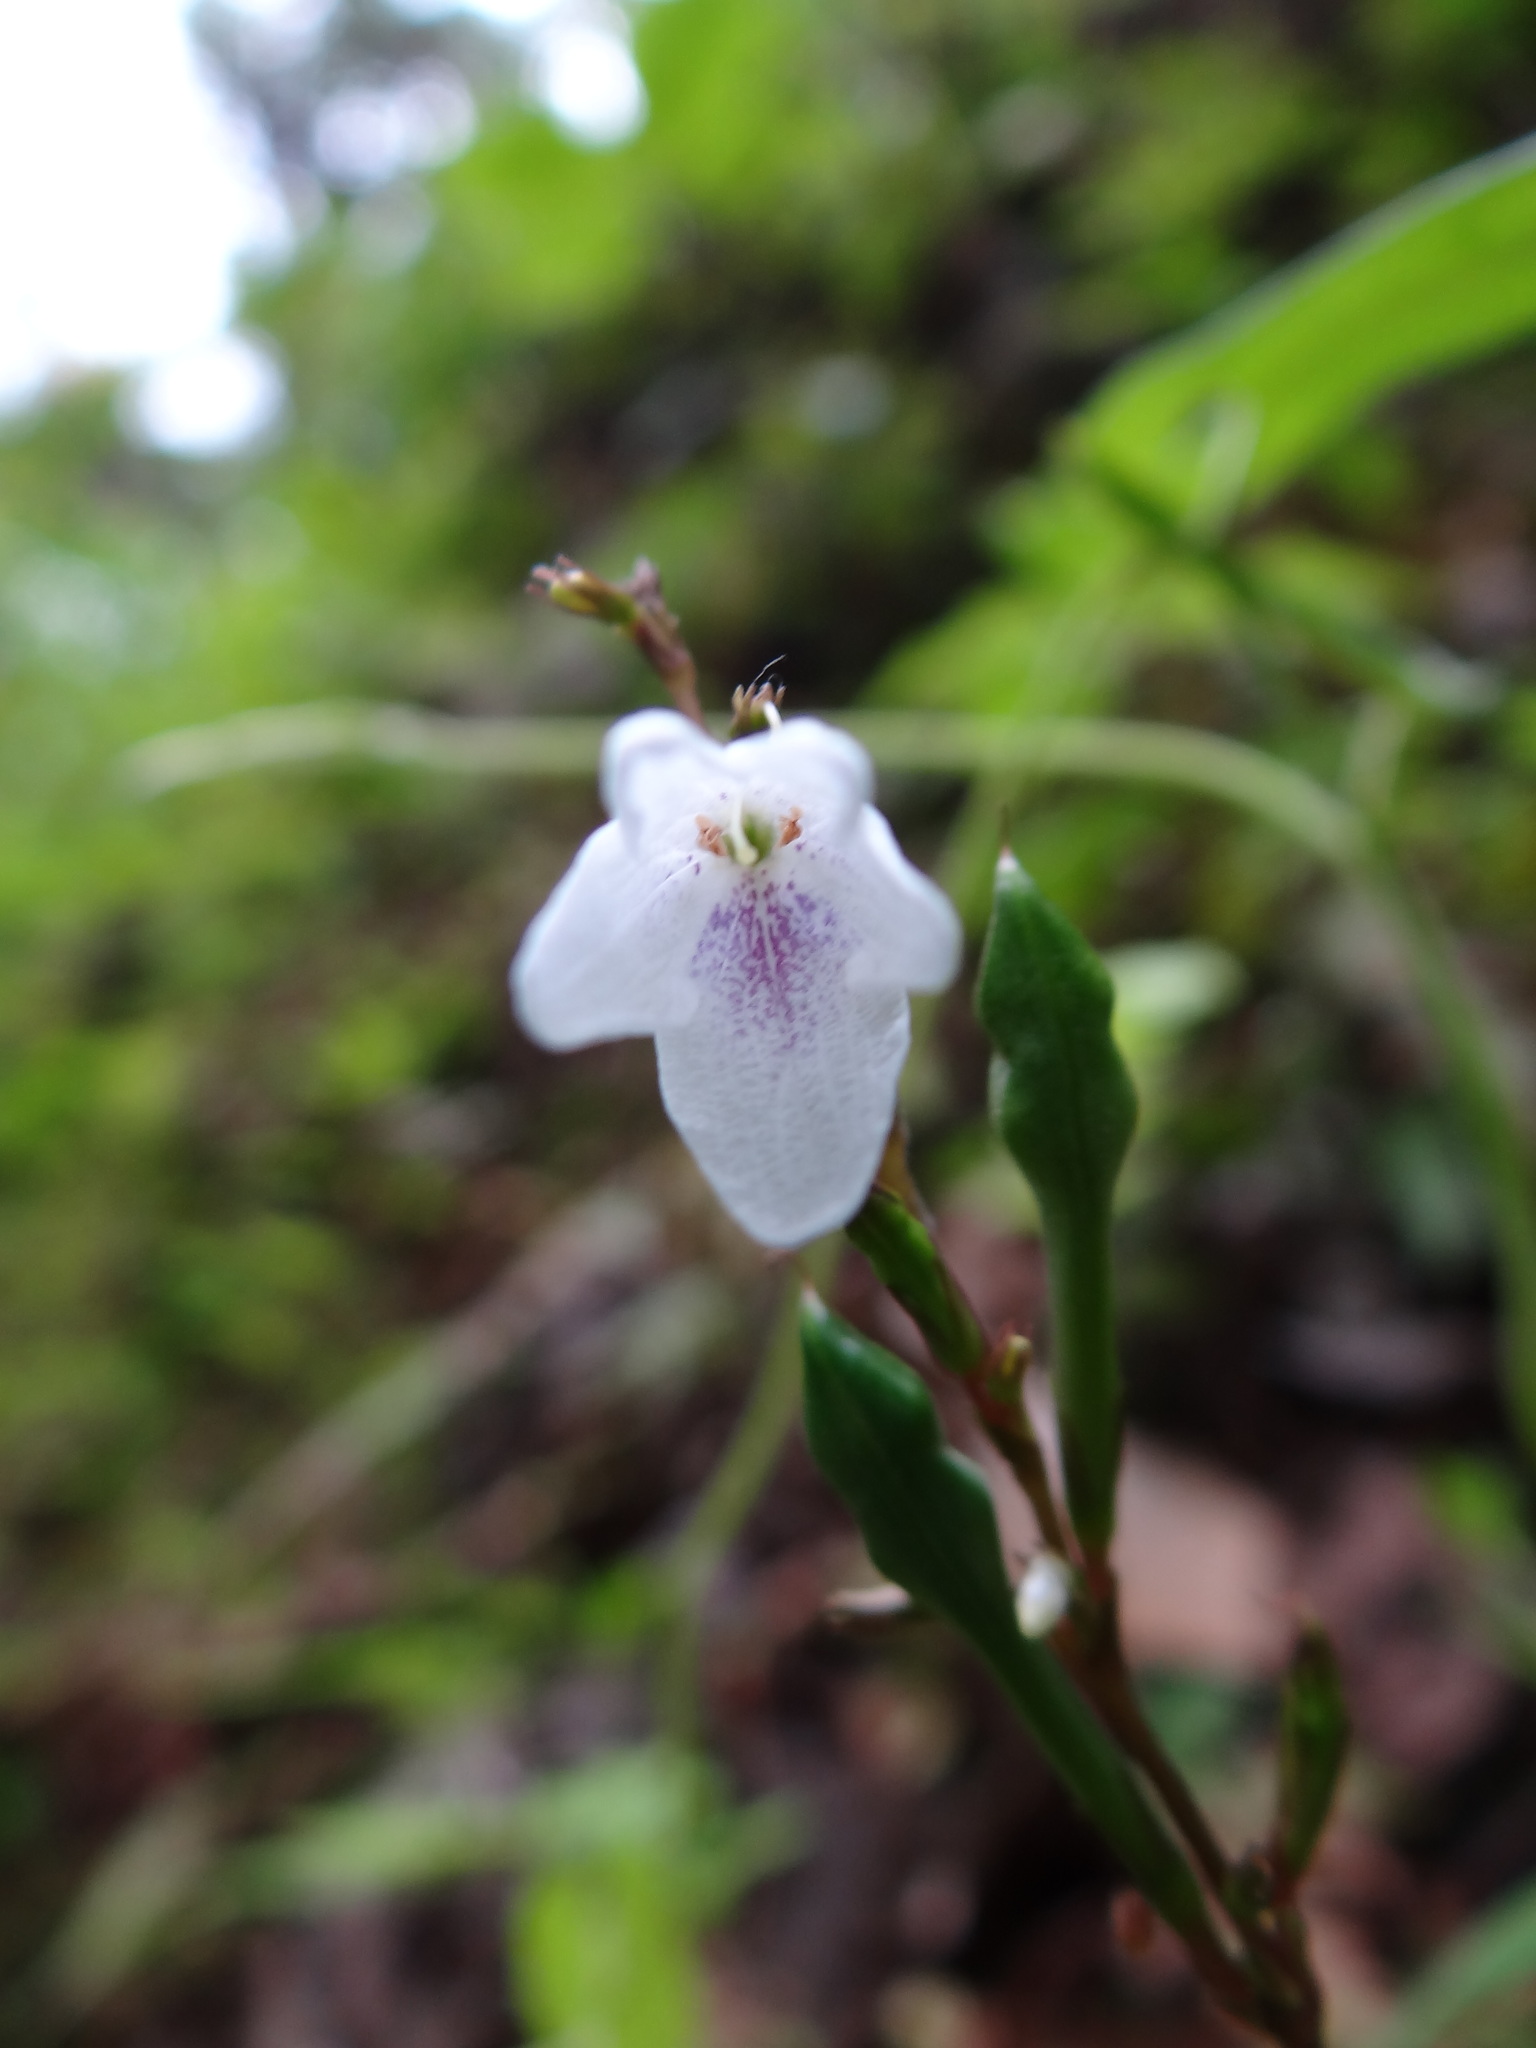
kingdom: Plantae
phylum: Tracheophyta
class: Magnoliopsida
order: Lamiales
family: Acanthaceae
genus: Codonacanthus
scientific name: Codonacanthus pauciflorus
